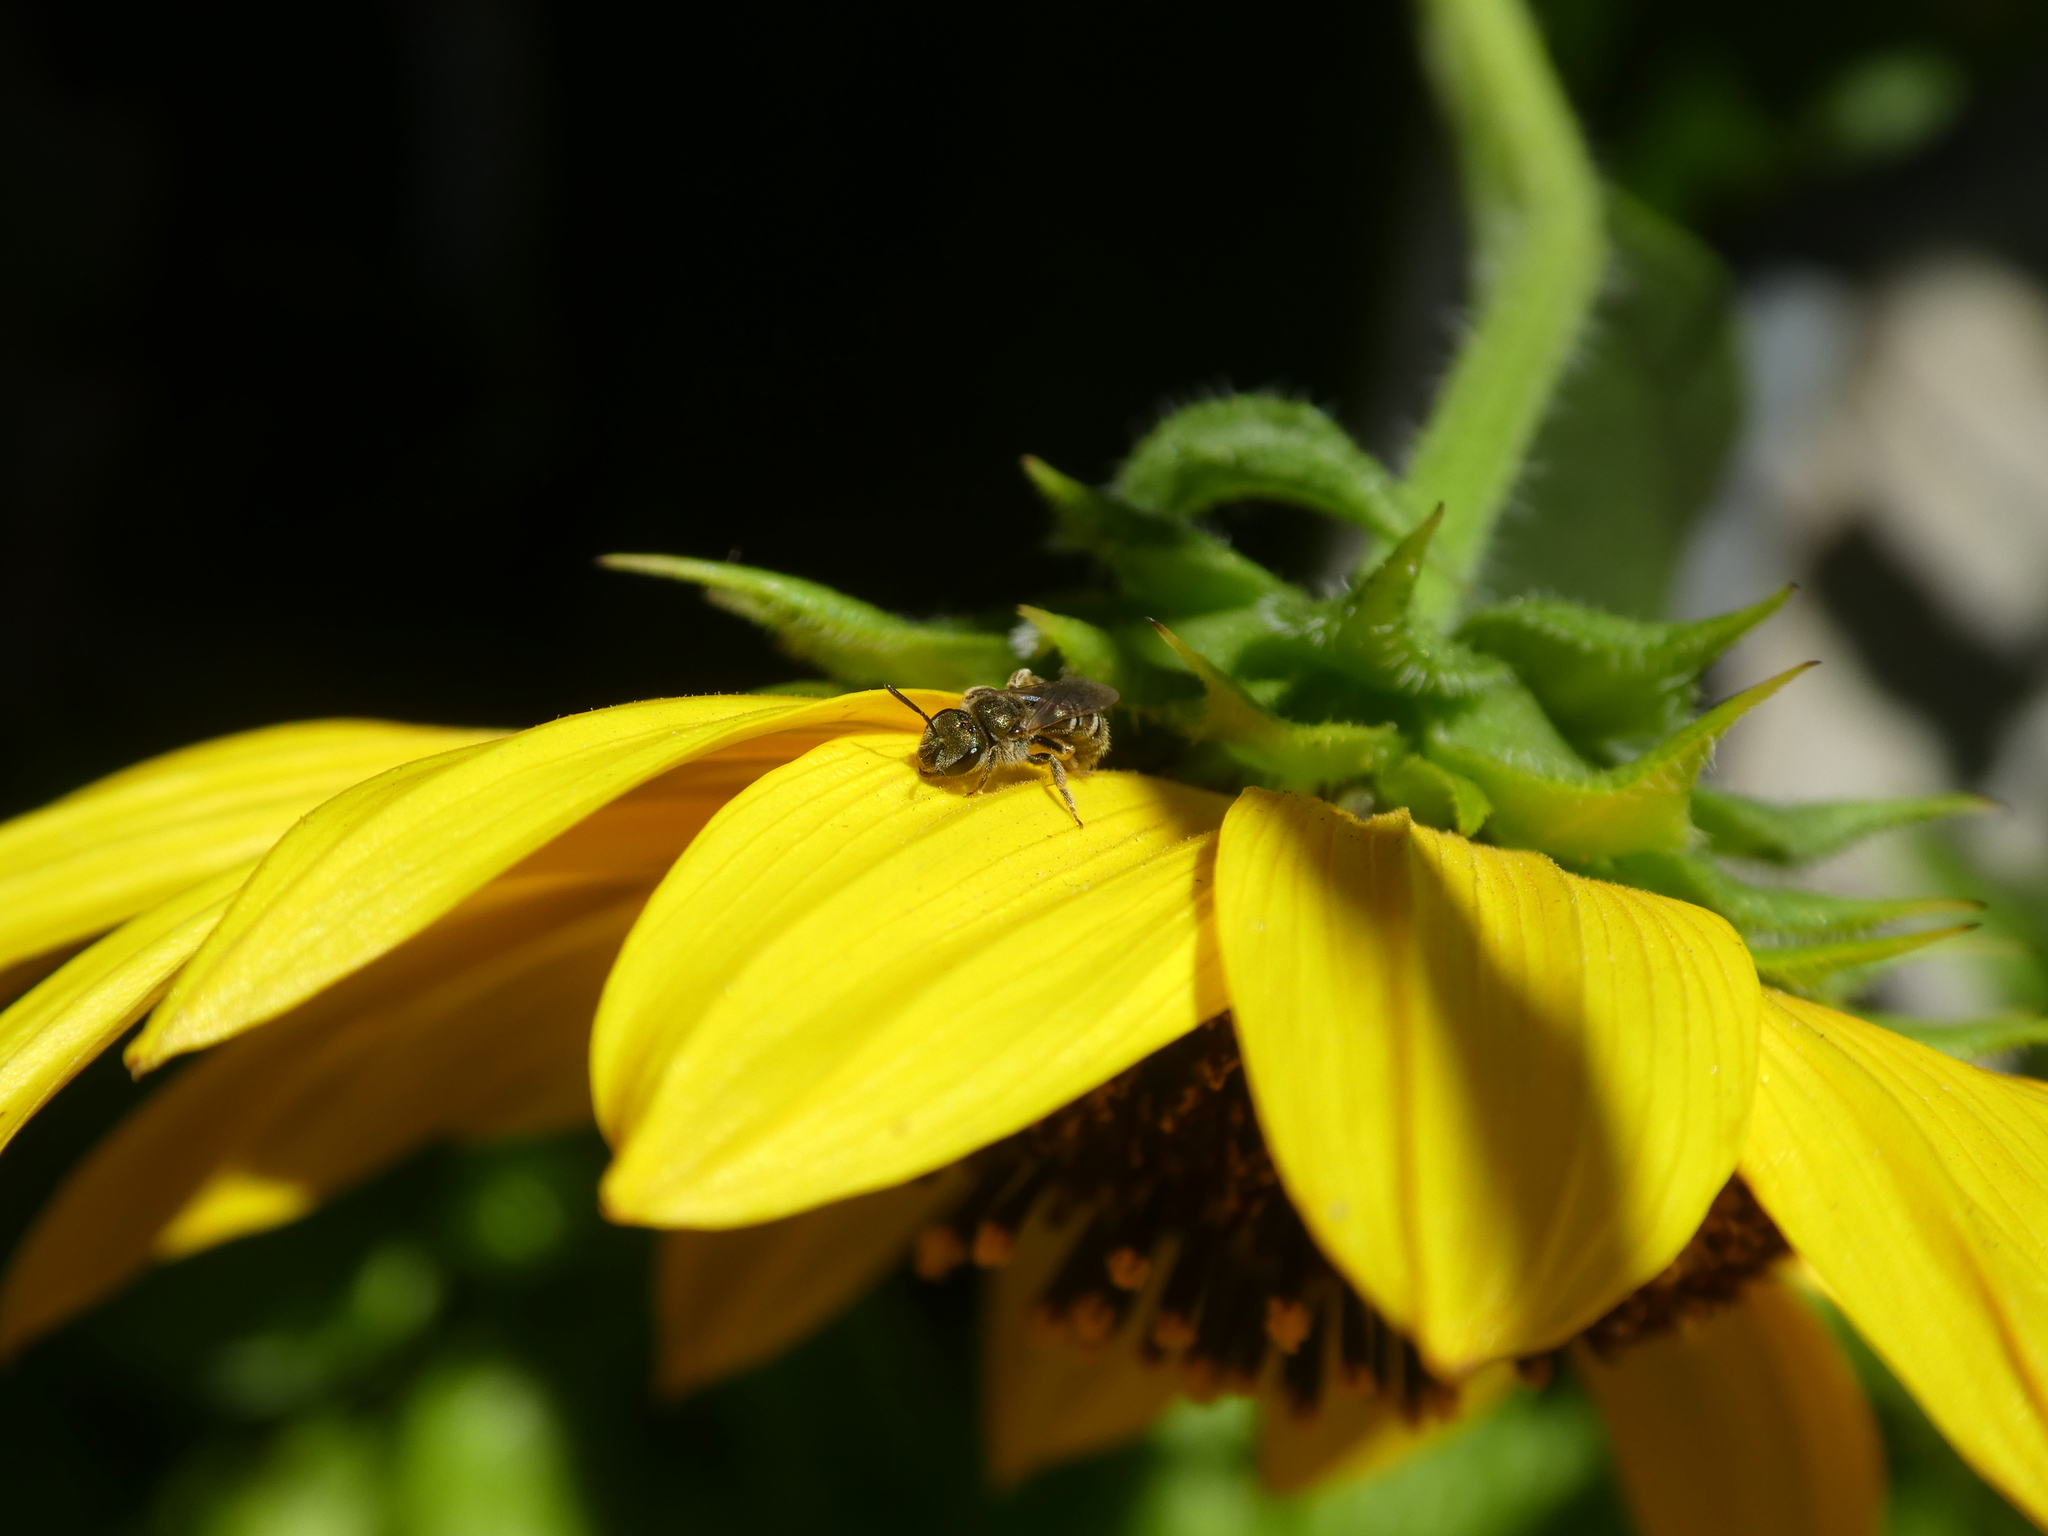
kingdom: Animalia
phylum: Arthropoda
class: Insecta
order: Hymenoptera
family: Halictidae
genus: Halictus
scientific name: Halictus tripartitus
